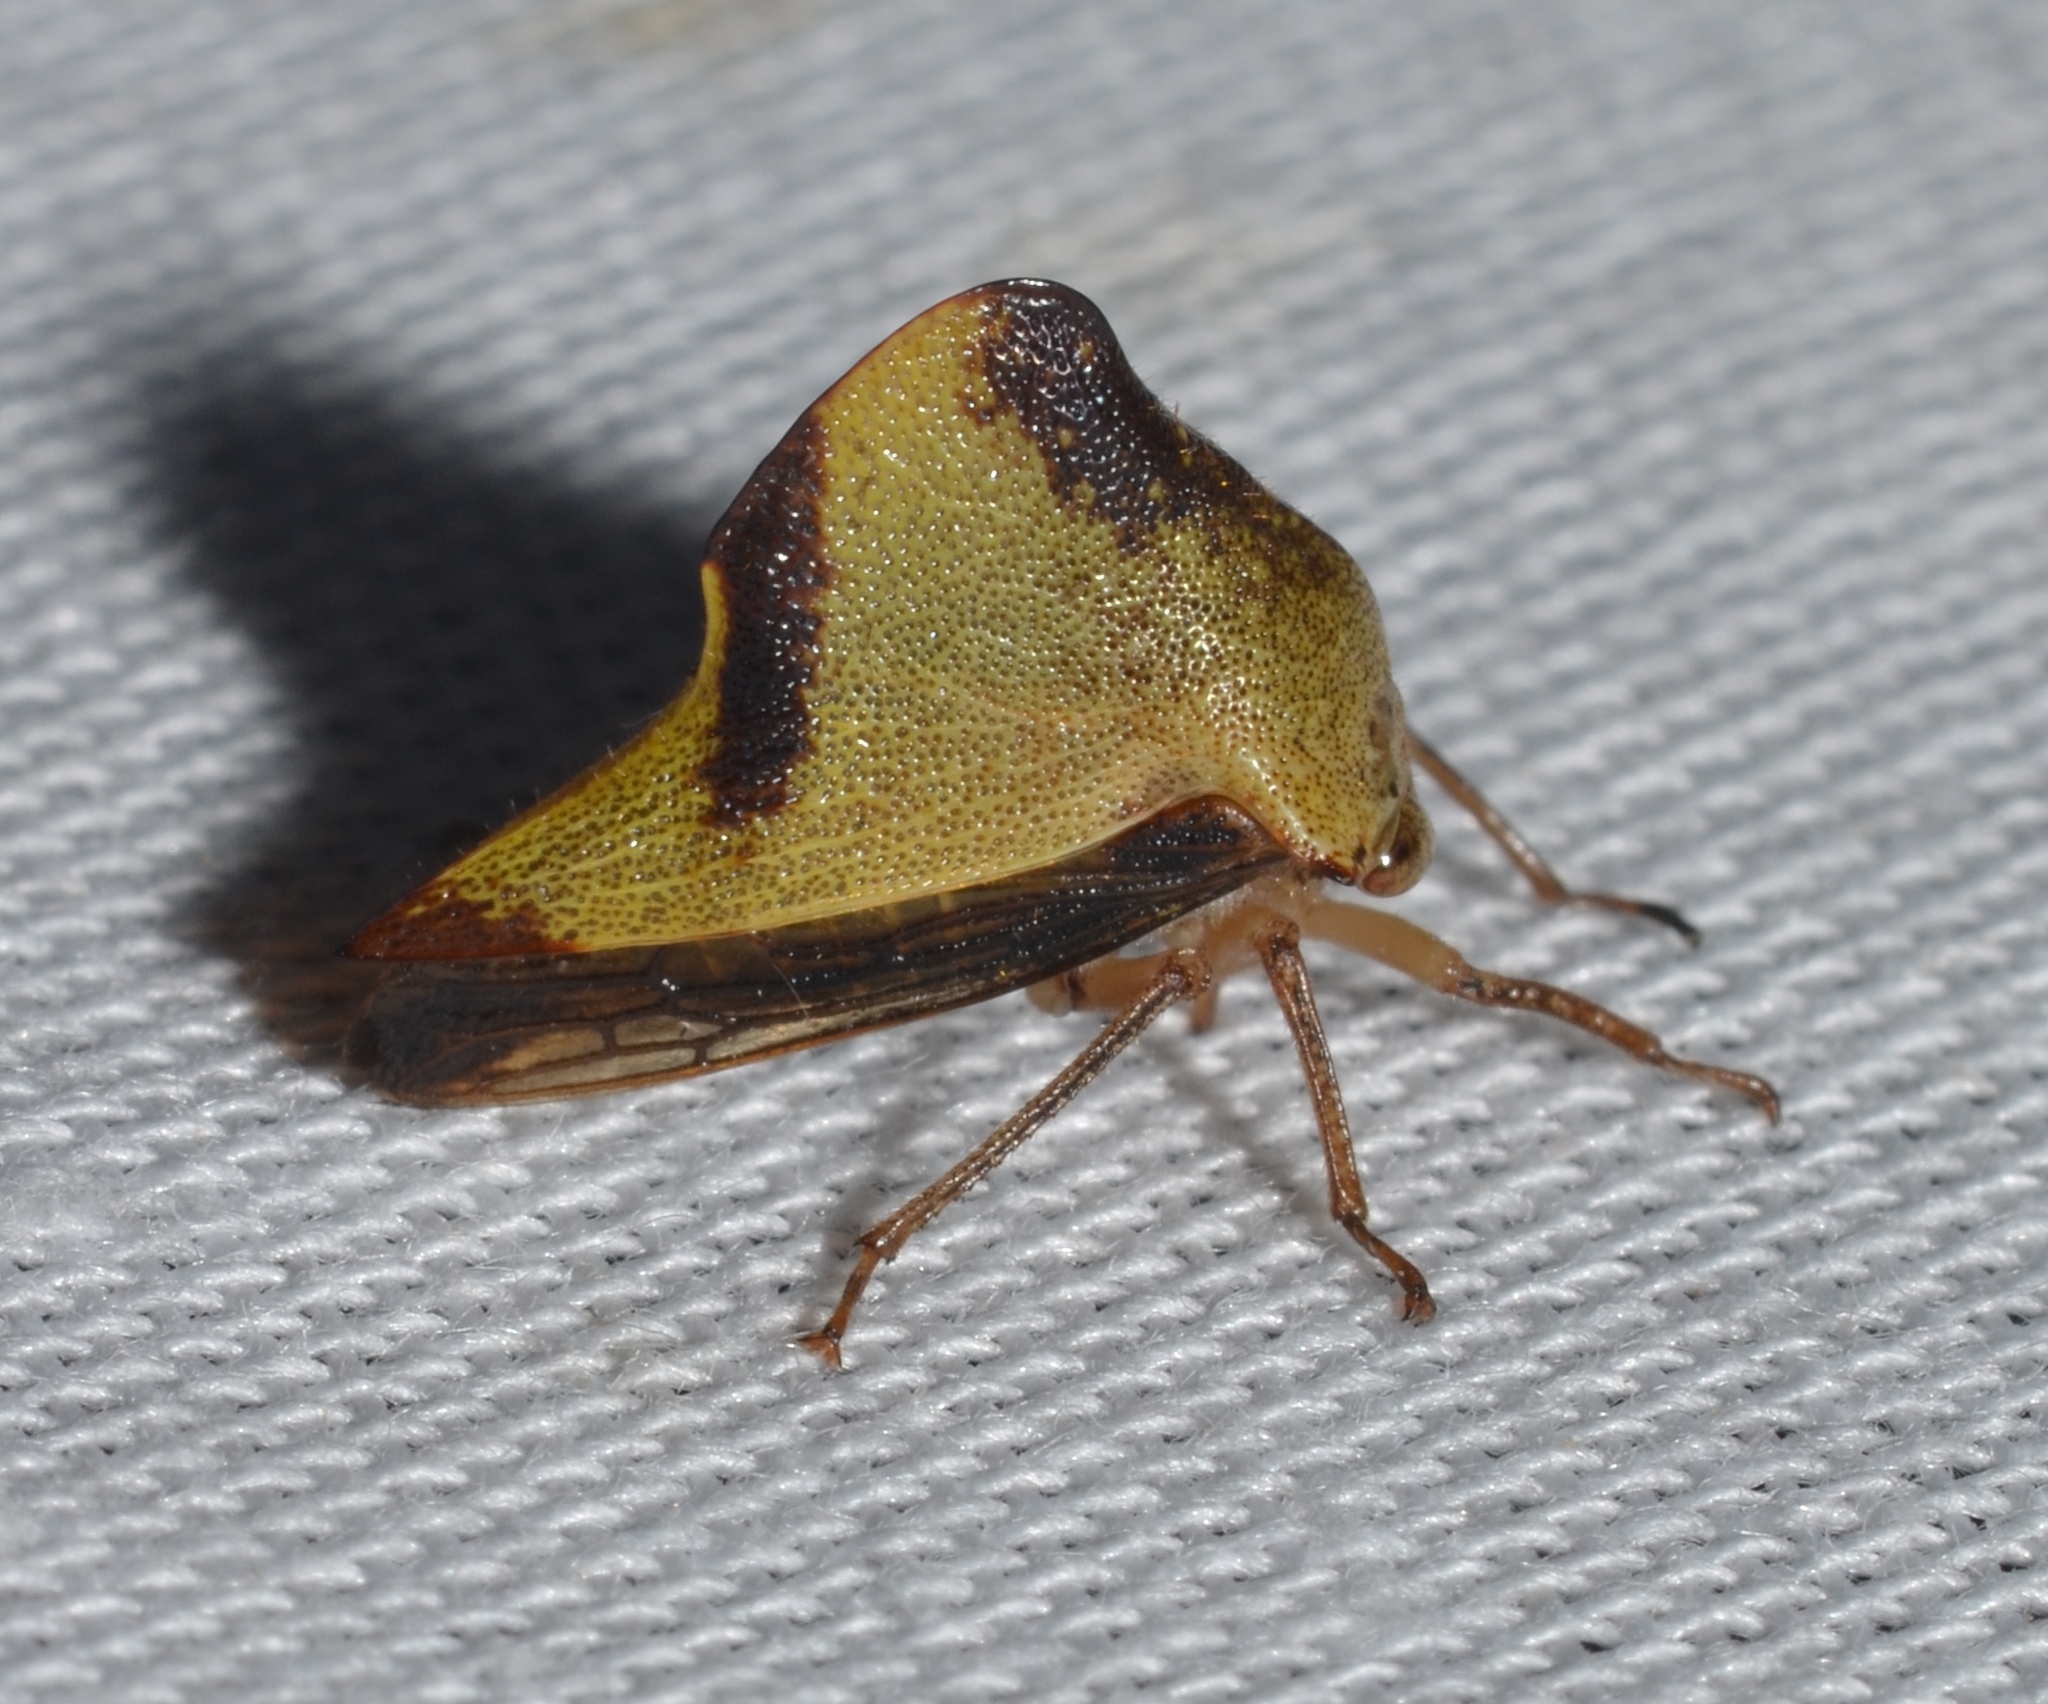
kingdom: Animalia
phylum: Arthropoda
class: Insecta
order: Hemiptera
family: Membracidae
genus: Helonica
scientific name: Helonica excelsa
